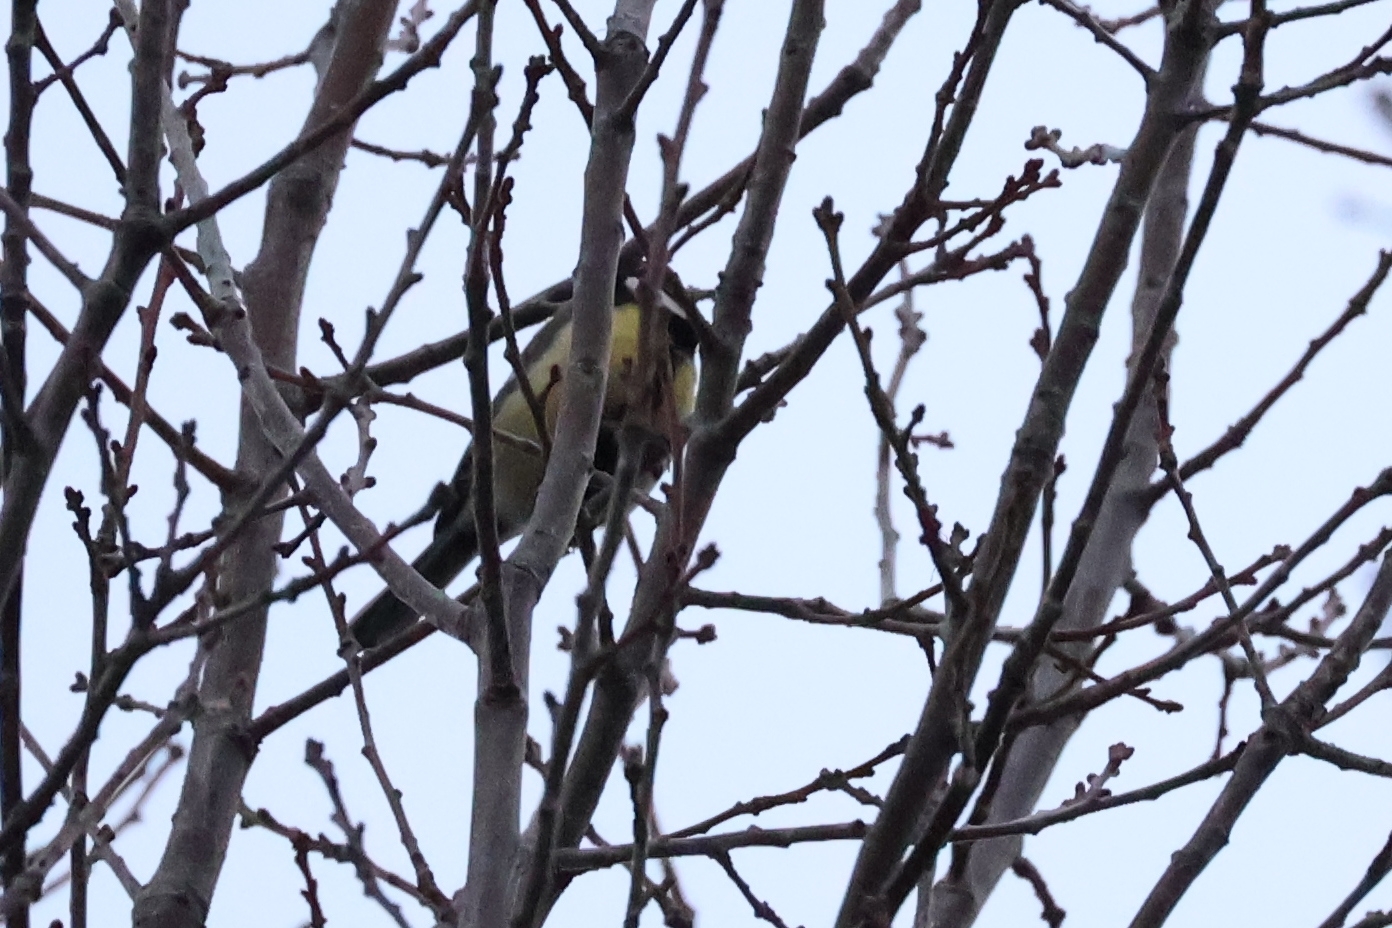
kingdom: Animalia
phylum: Chordata
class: Aves
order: Passeriformes
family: Paridae
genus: Parus
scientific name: Parus major
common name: Great tit
